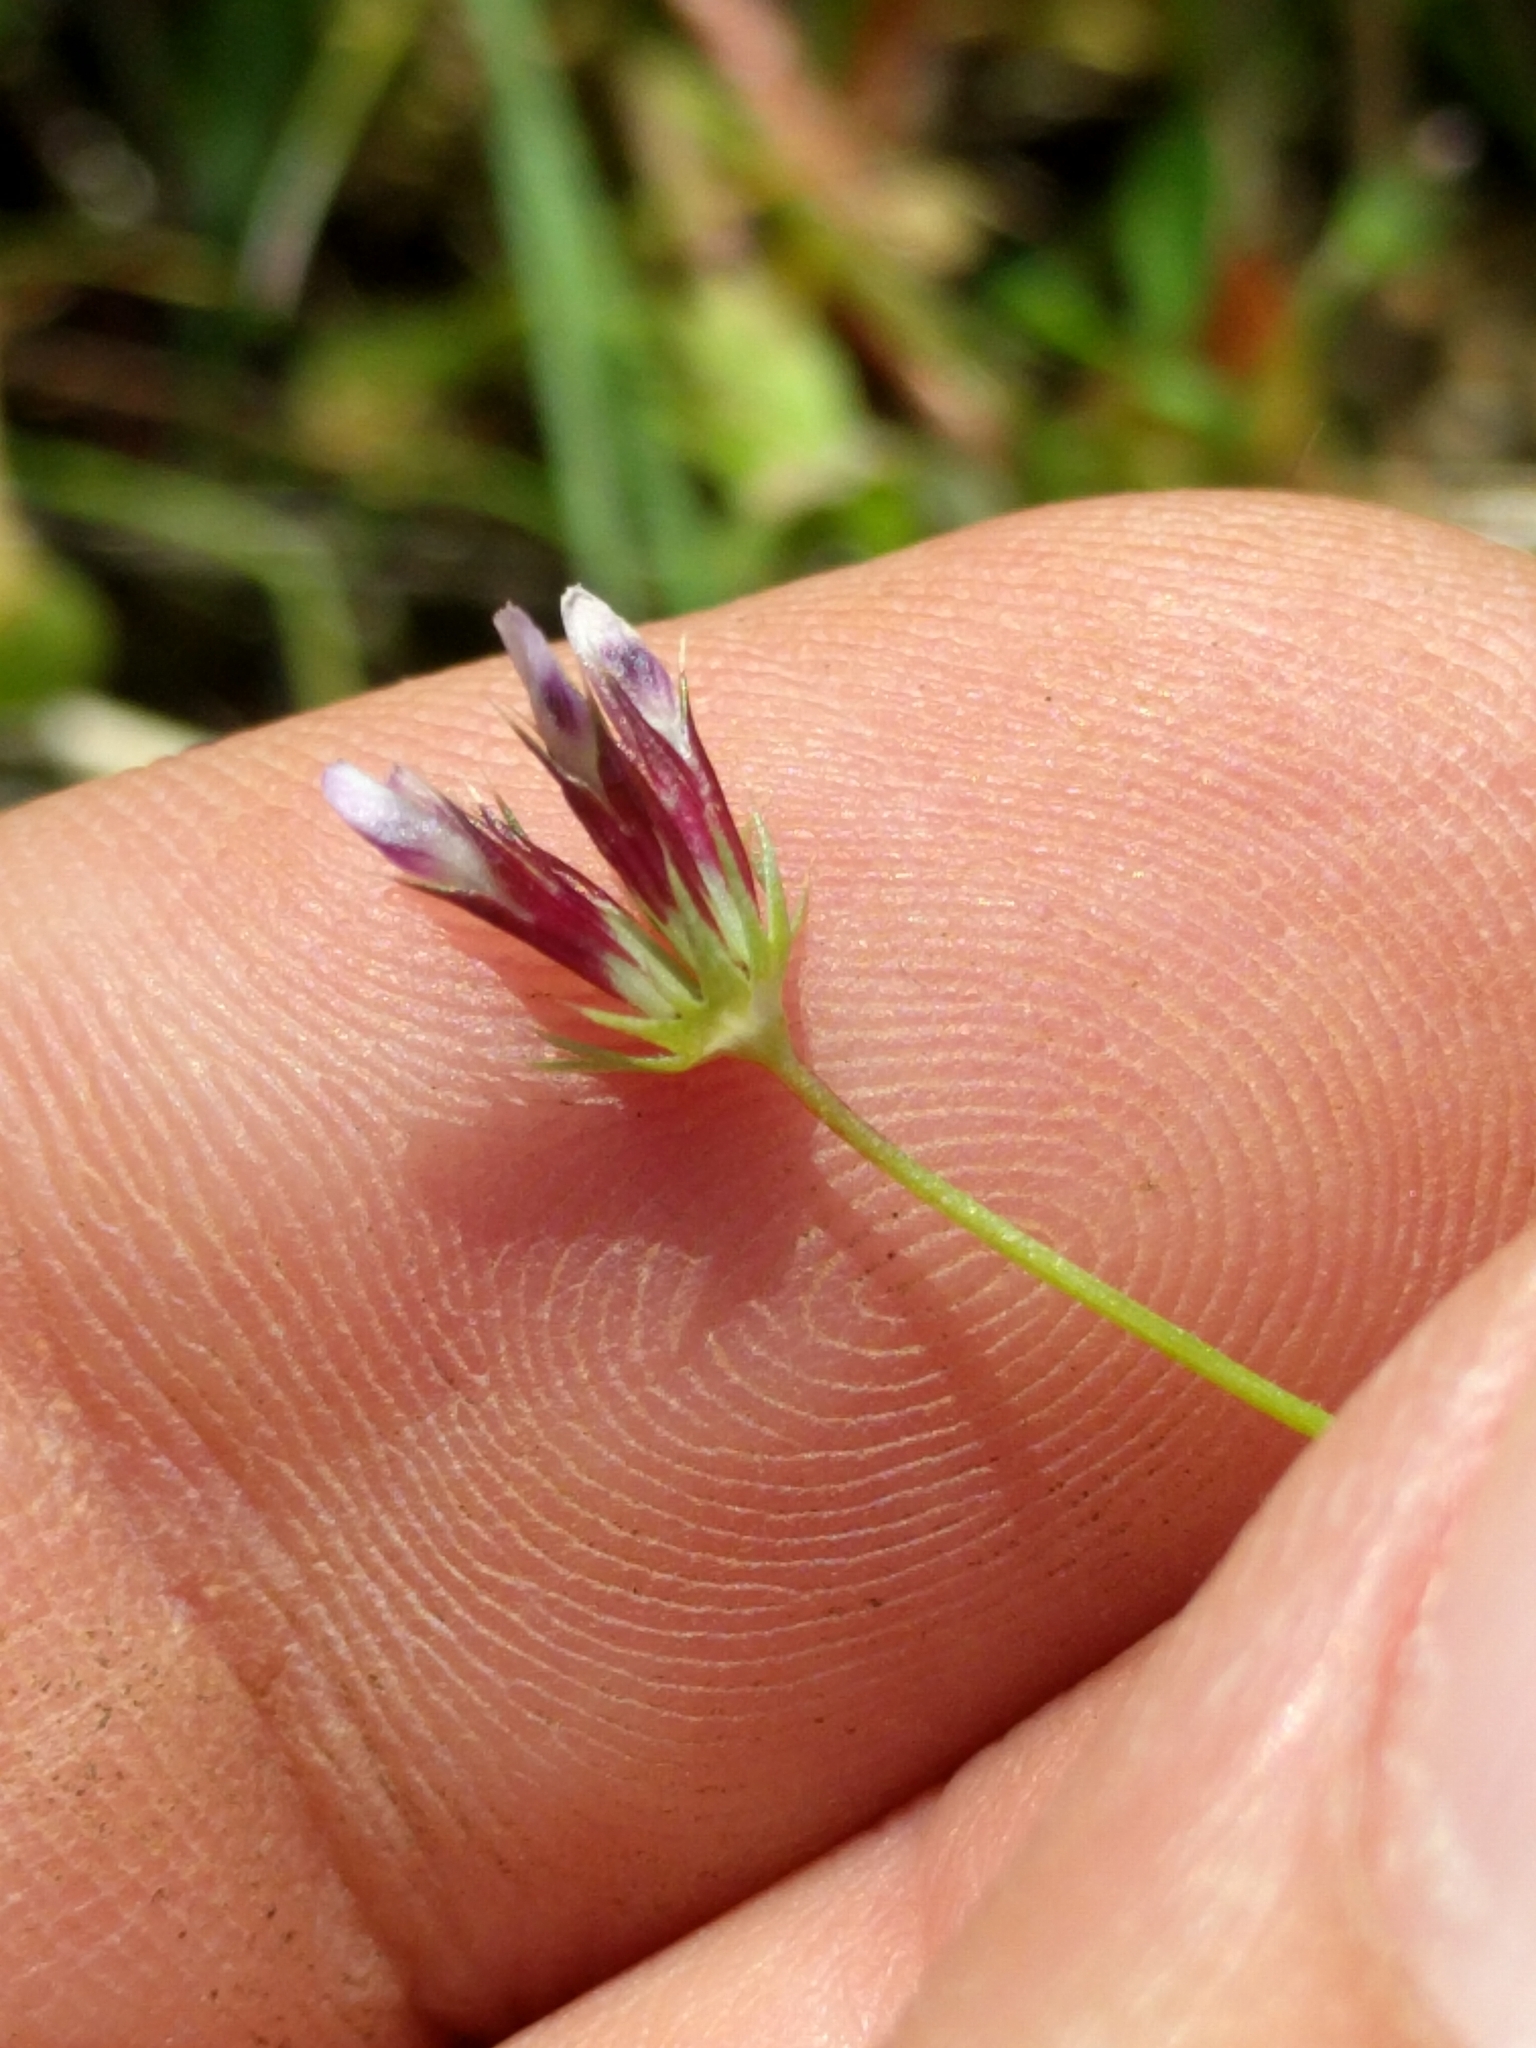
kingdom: Plantae
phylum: Tracheophyta
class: Magnoliopsida
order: Fabales
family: Fabaceae
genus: Trifolium
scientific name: Trifolium oliganthum
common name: Few-flower clover
